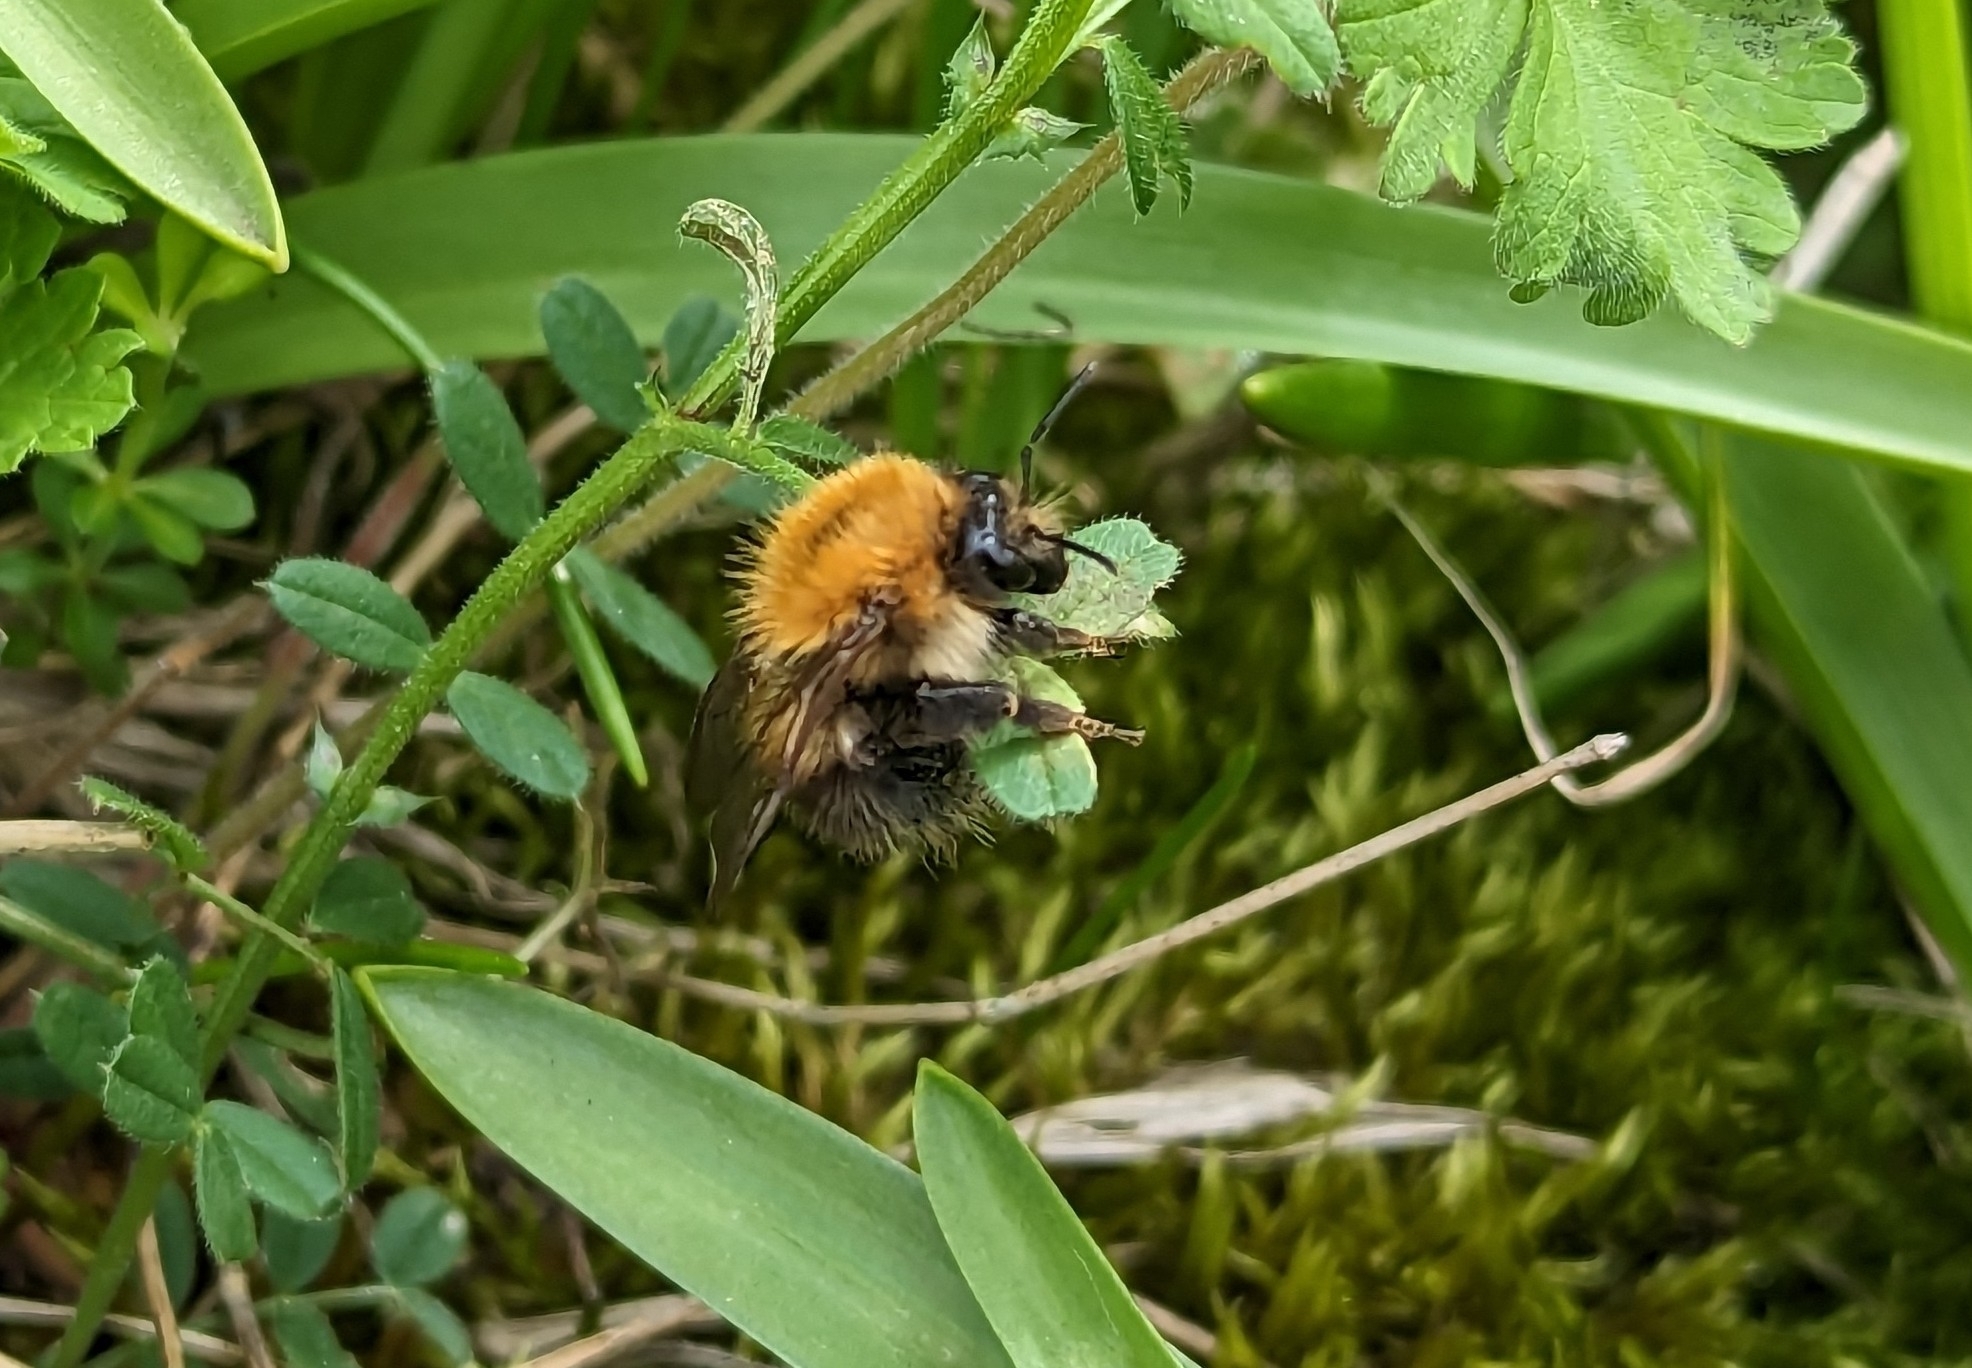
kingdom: Animalia
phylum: Arthropoda
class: Insecta
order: Hymenoptera
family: Apidae
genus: Bombus
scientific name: Bombus pascuorum
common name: Common carder bee
